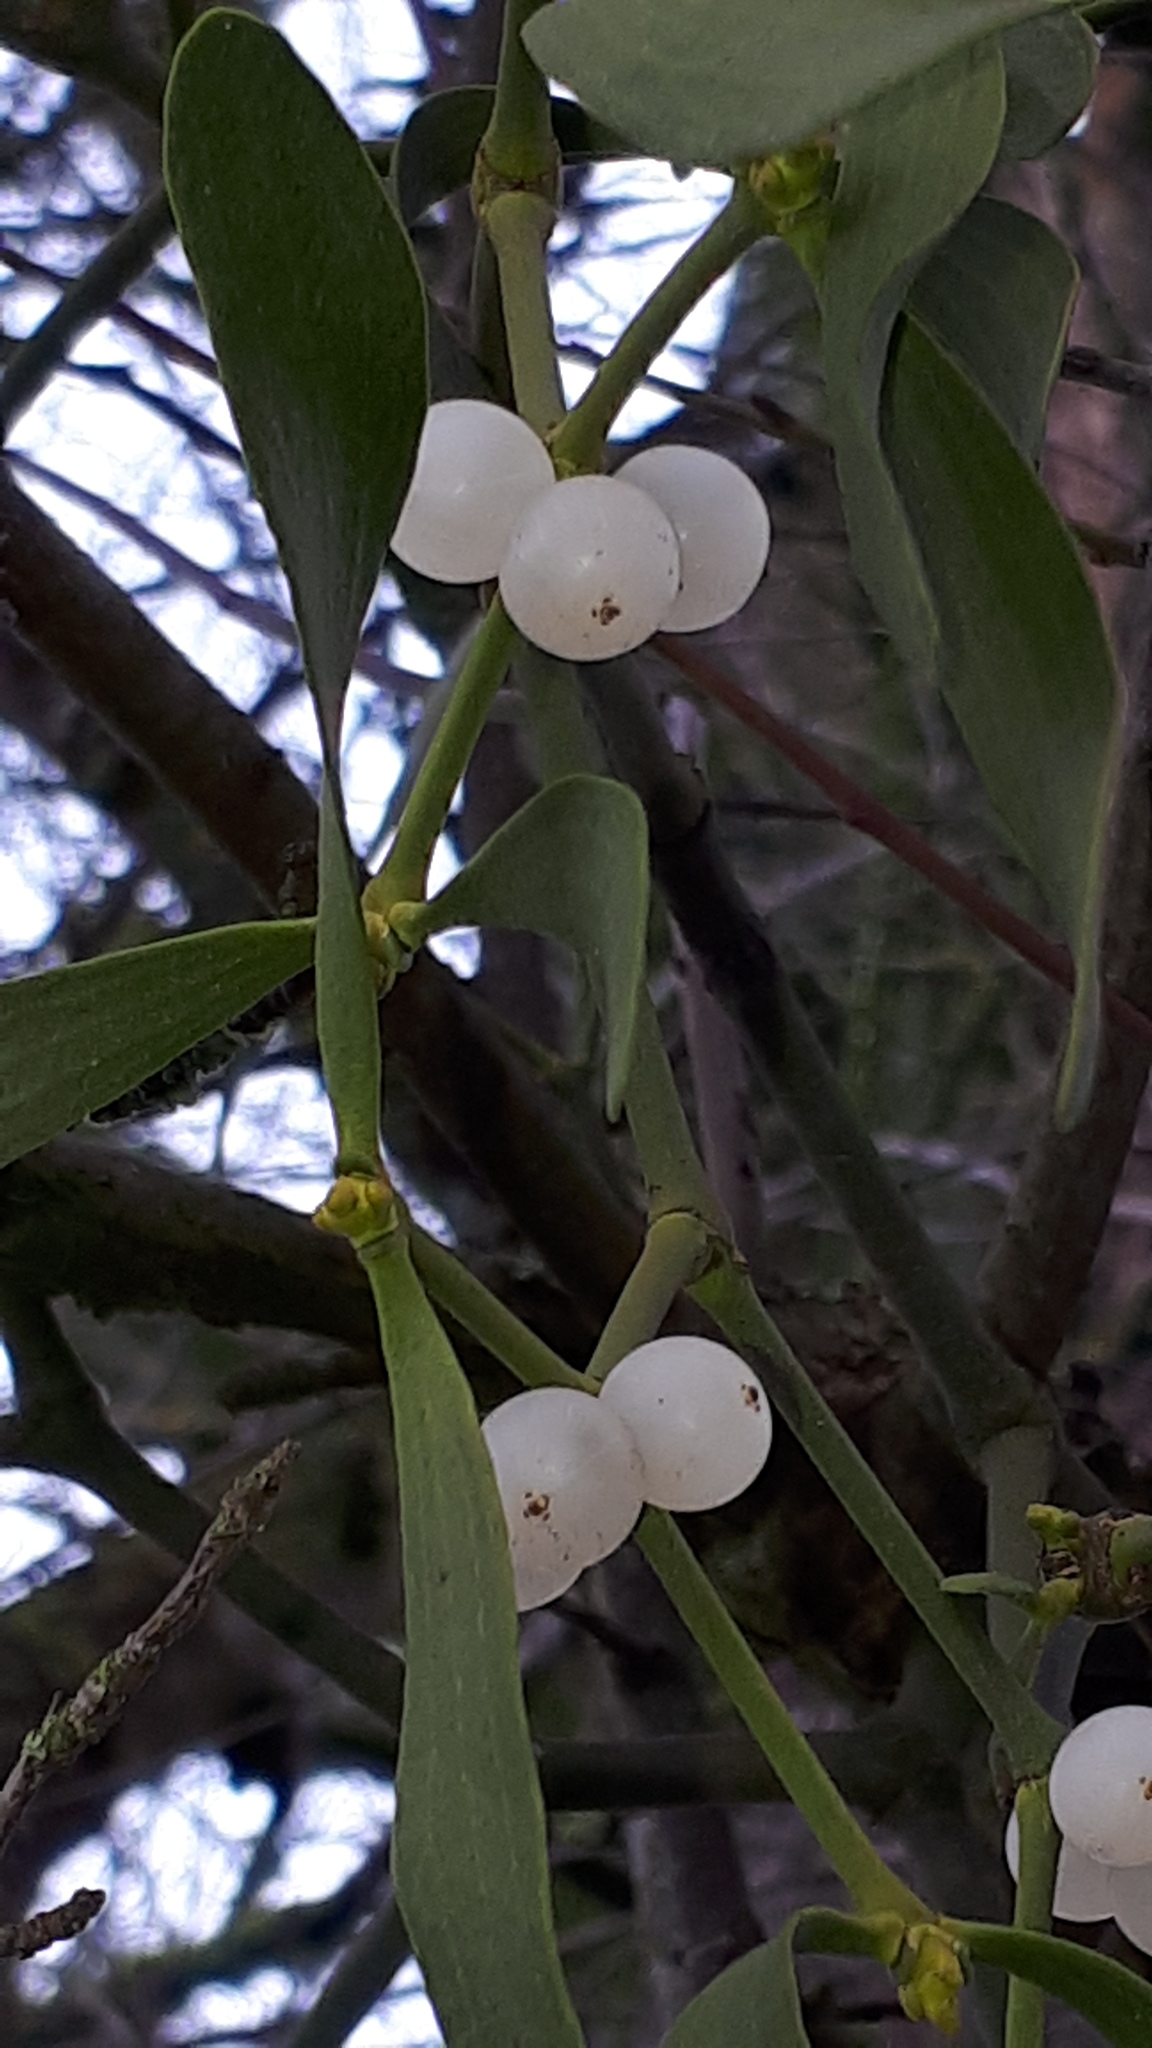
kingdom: Plantae
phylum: Tracheophyta
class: Magnoliopsida
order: Santalales
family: Viscaceae
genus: Viscum
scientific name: Viscum album
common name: Mistletoe
